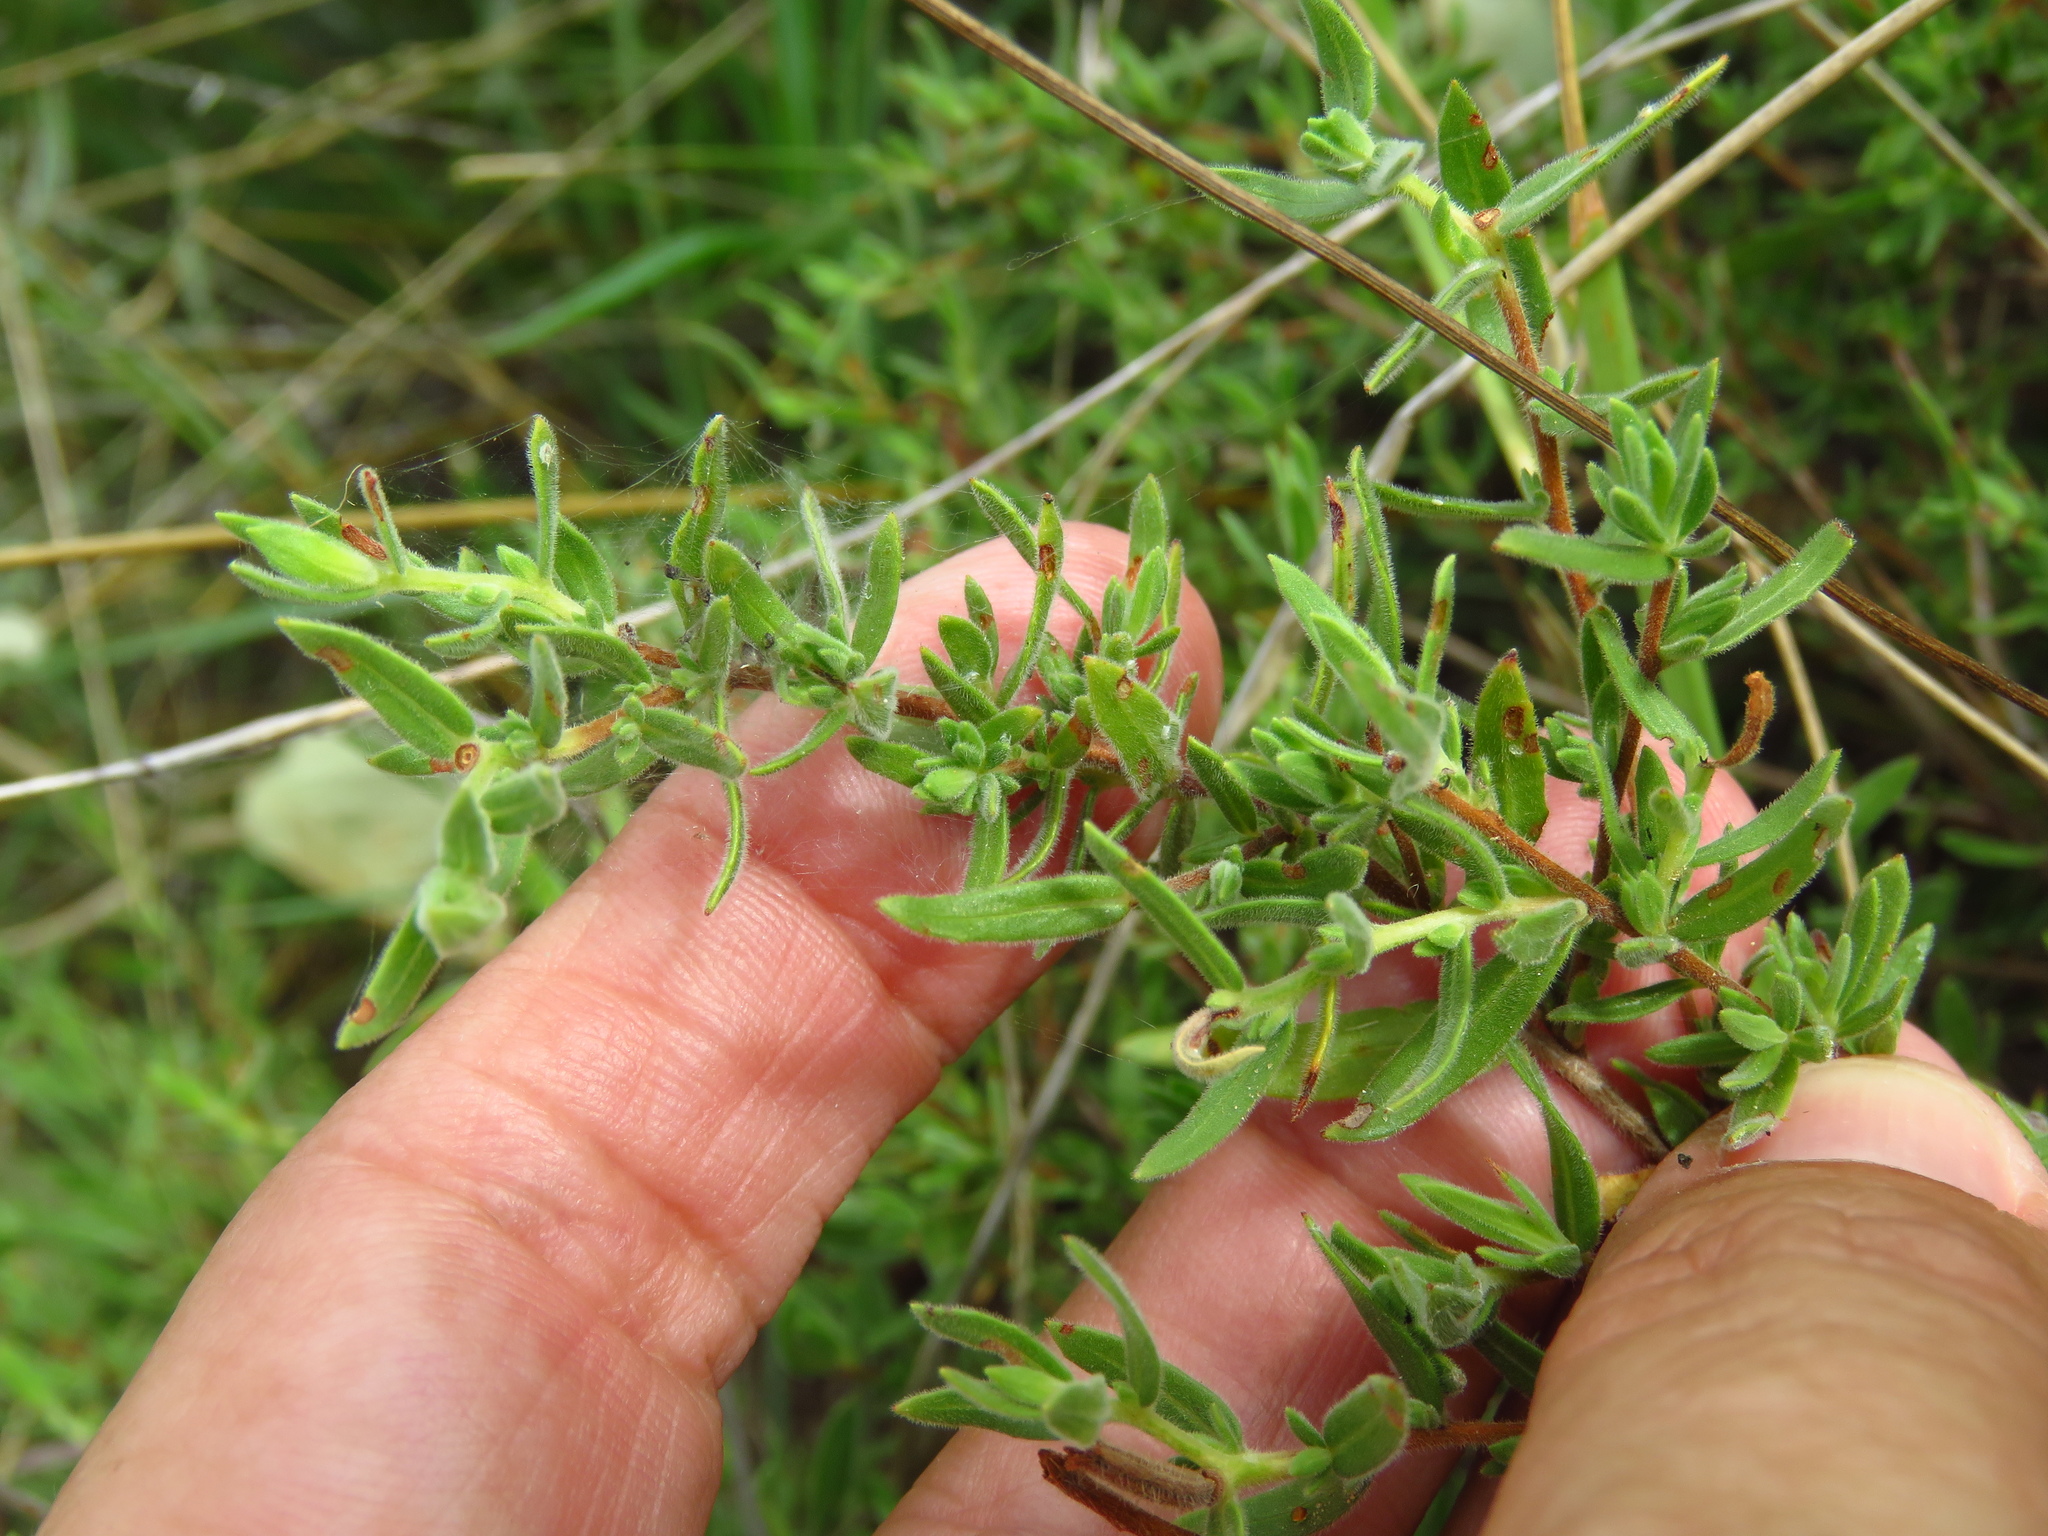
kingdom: Plantae
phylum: Tracheophyta
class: Magnoliopsida
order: Myrtales
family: Onagraceae
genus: Oenothera
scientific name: Oenothera hartwegii
